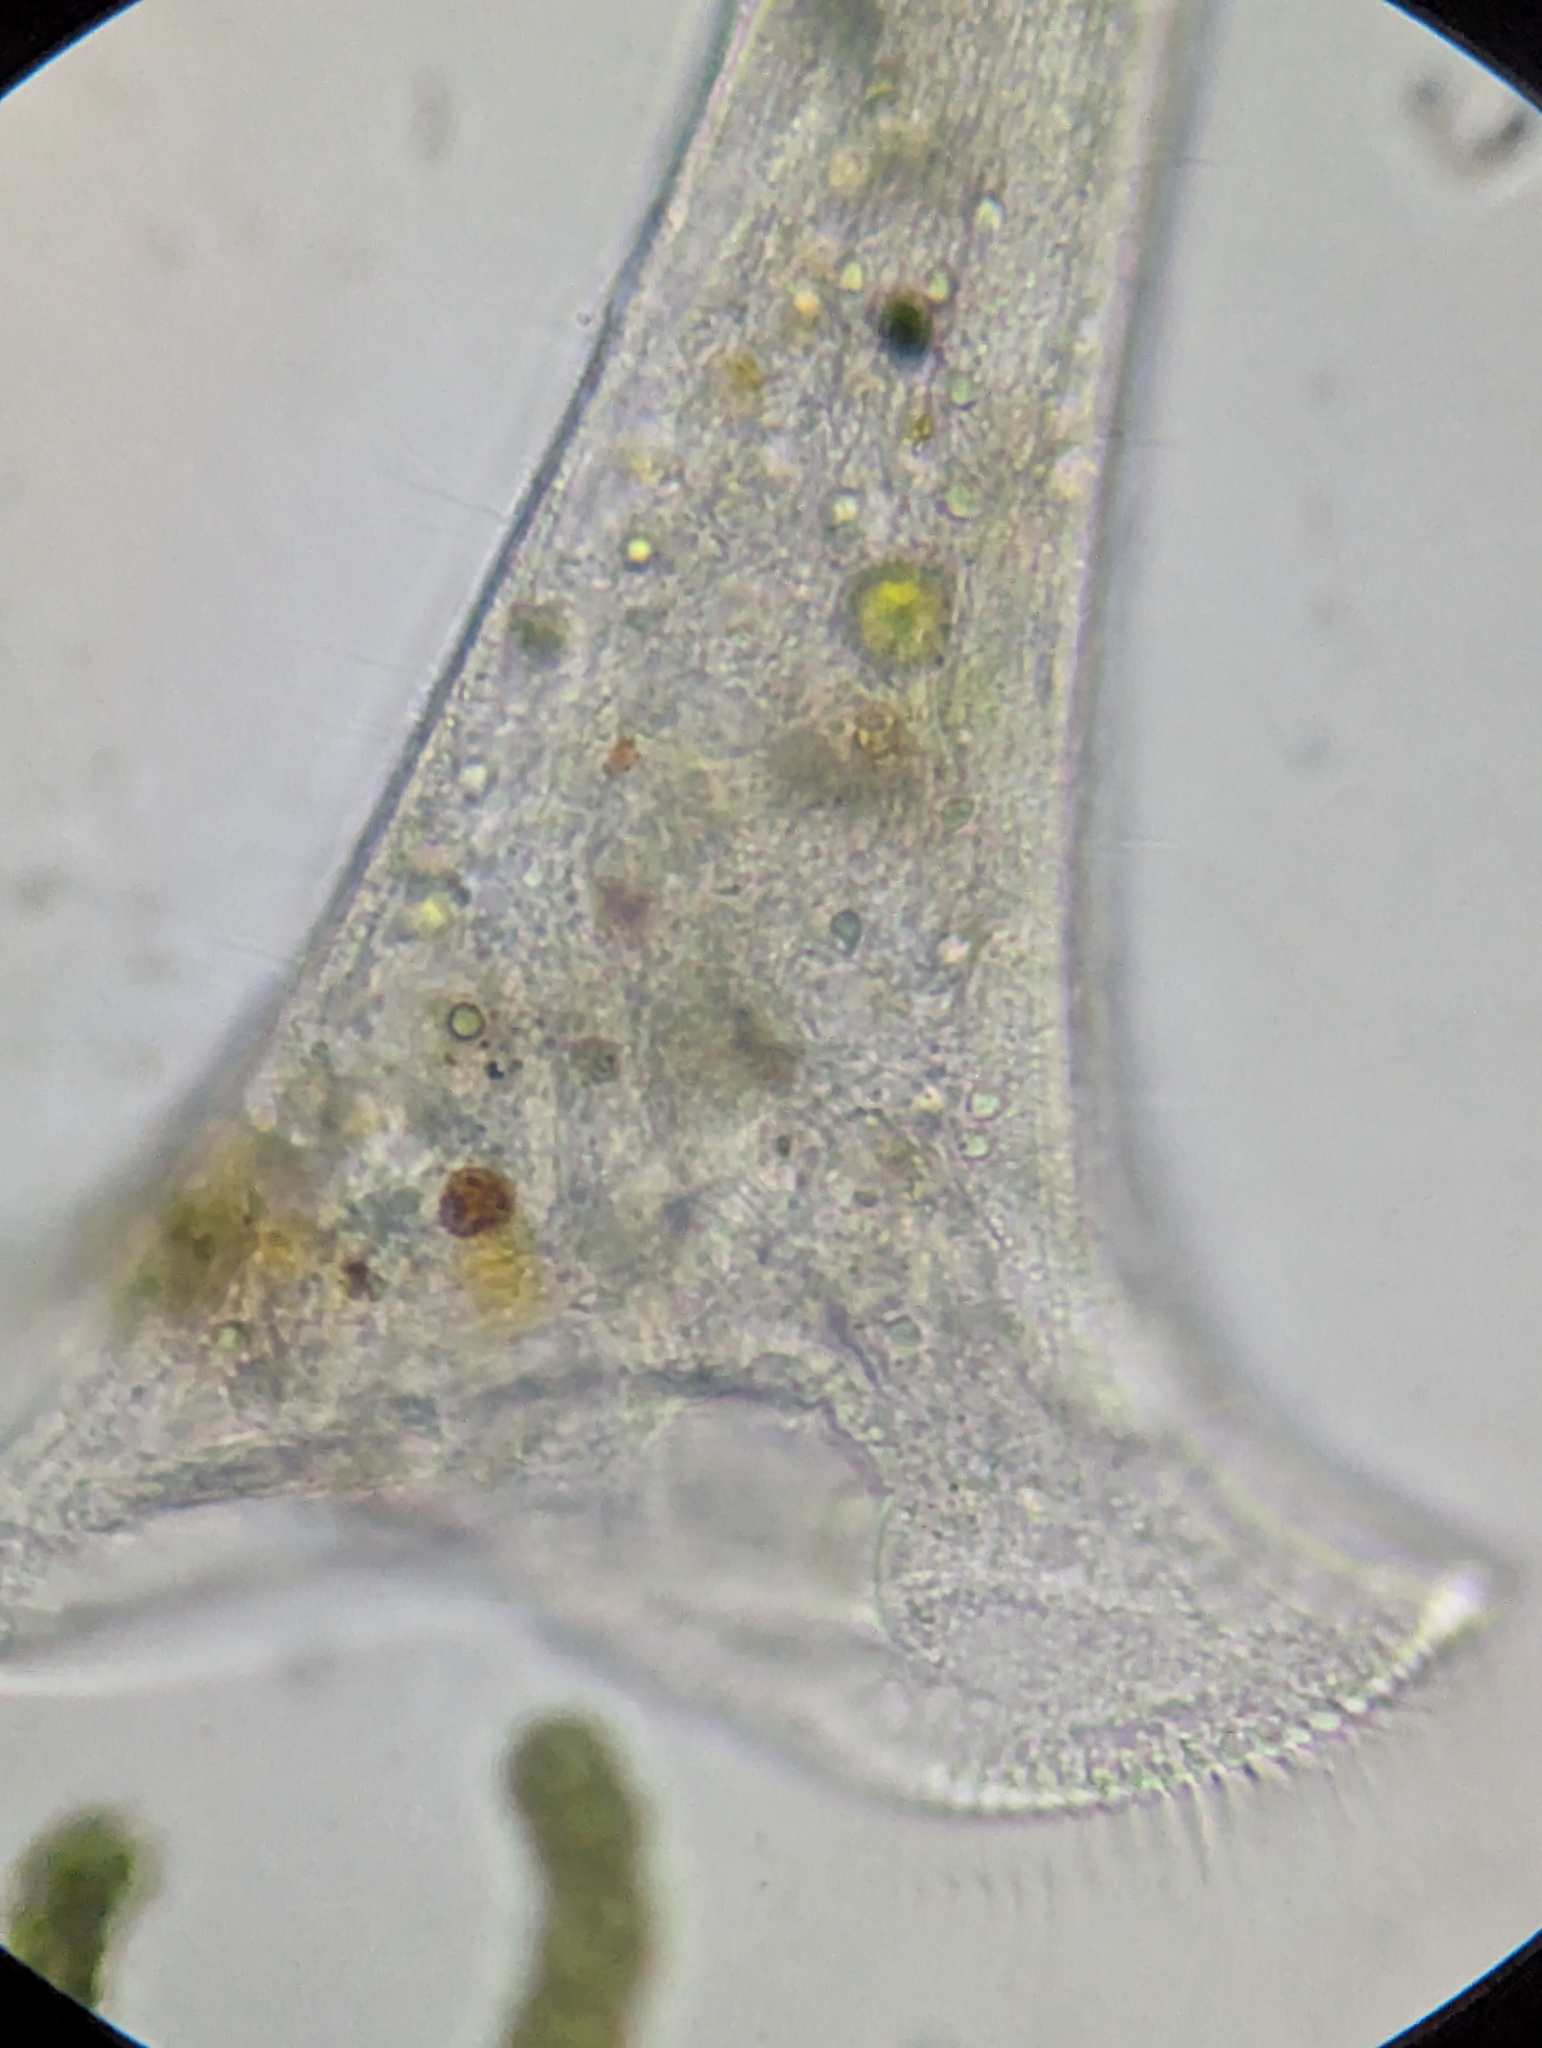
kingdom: Chromista
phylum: Ciliophora
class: Heterotrichea
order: Heterotrichida
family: Stentoridae
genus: Stentor
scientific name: Stentor roeselii
